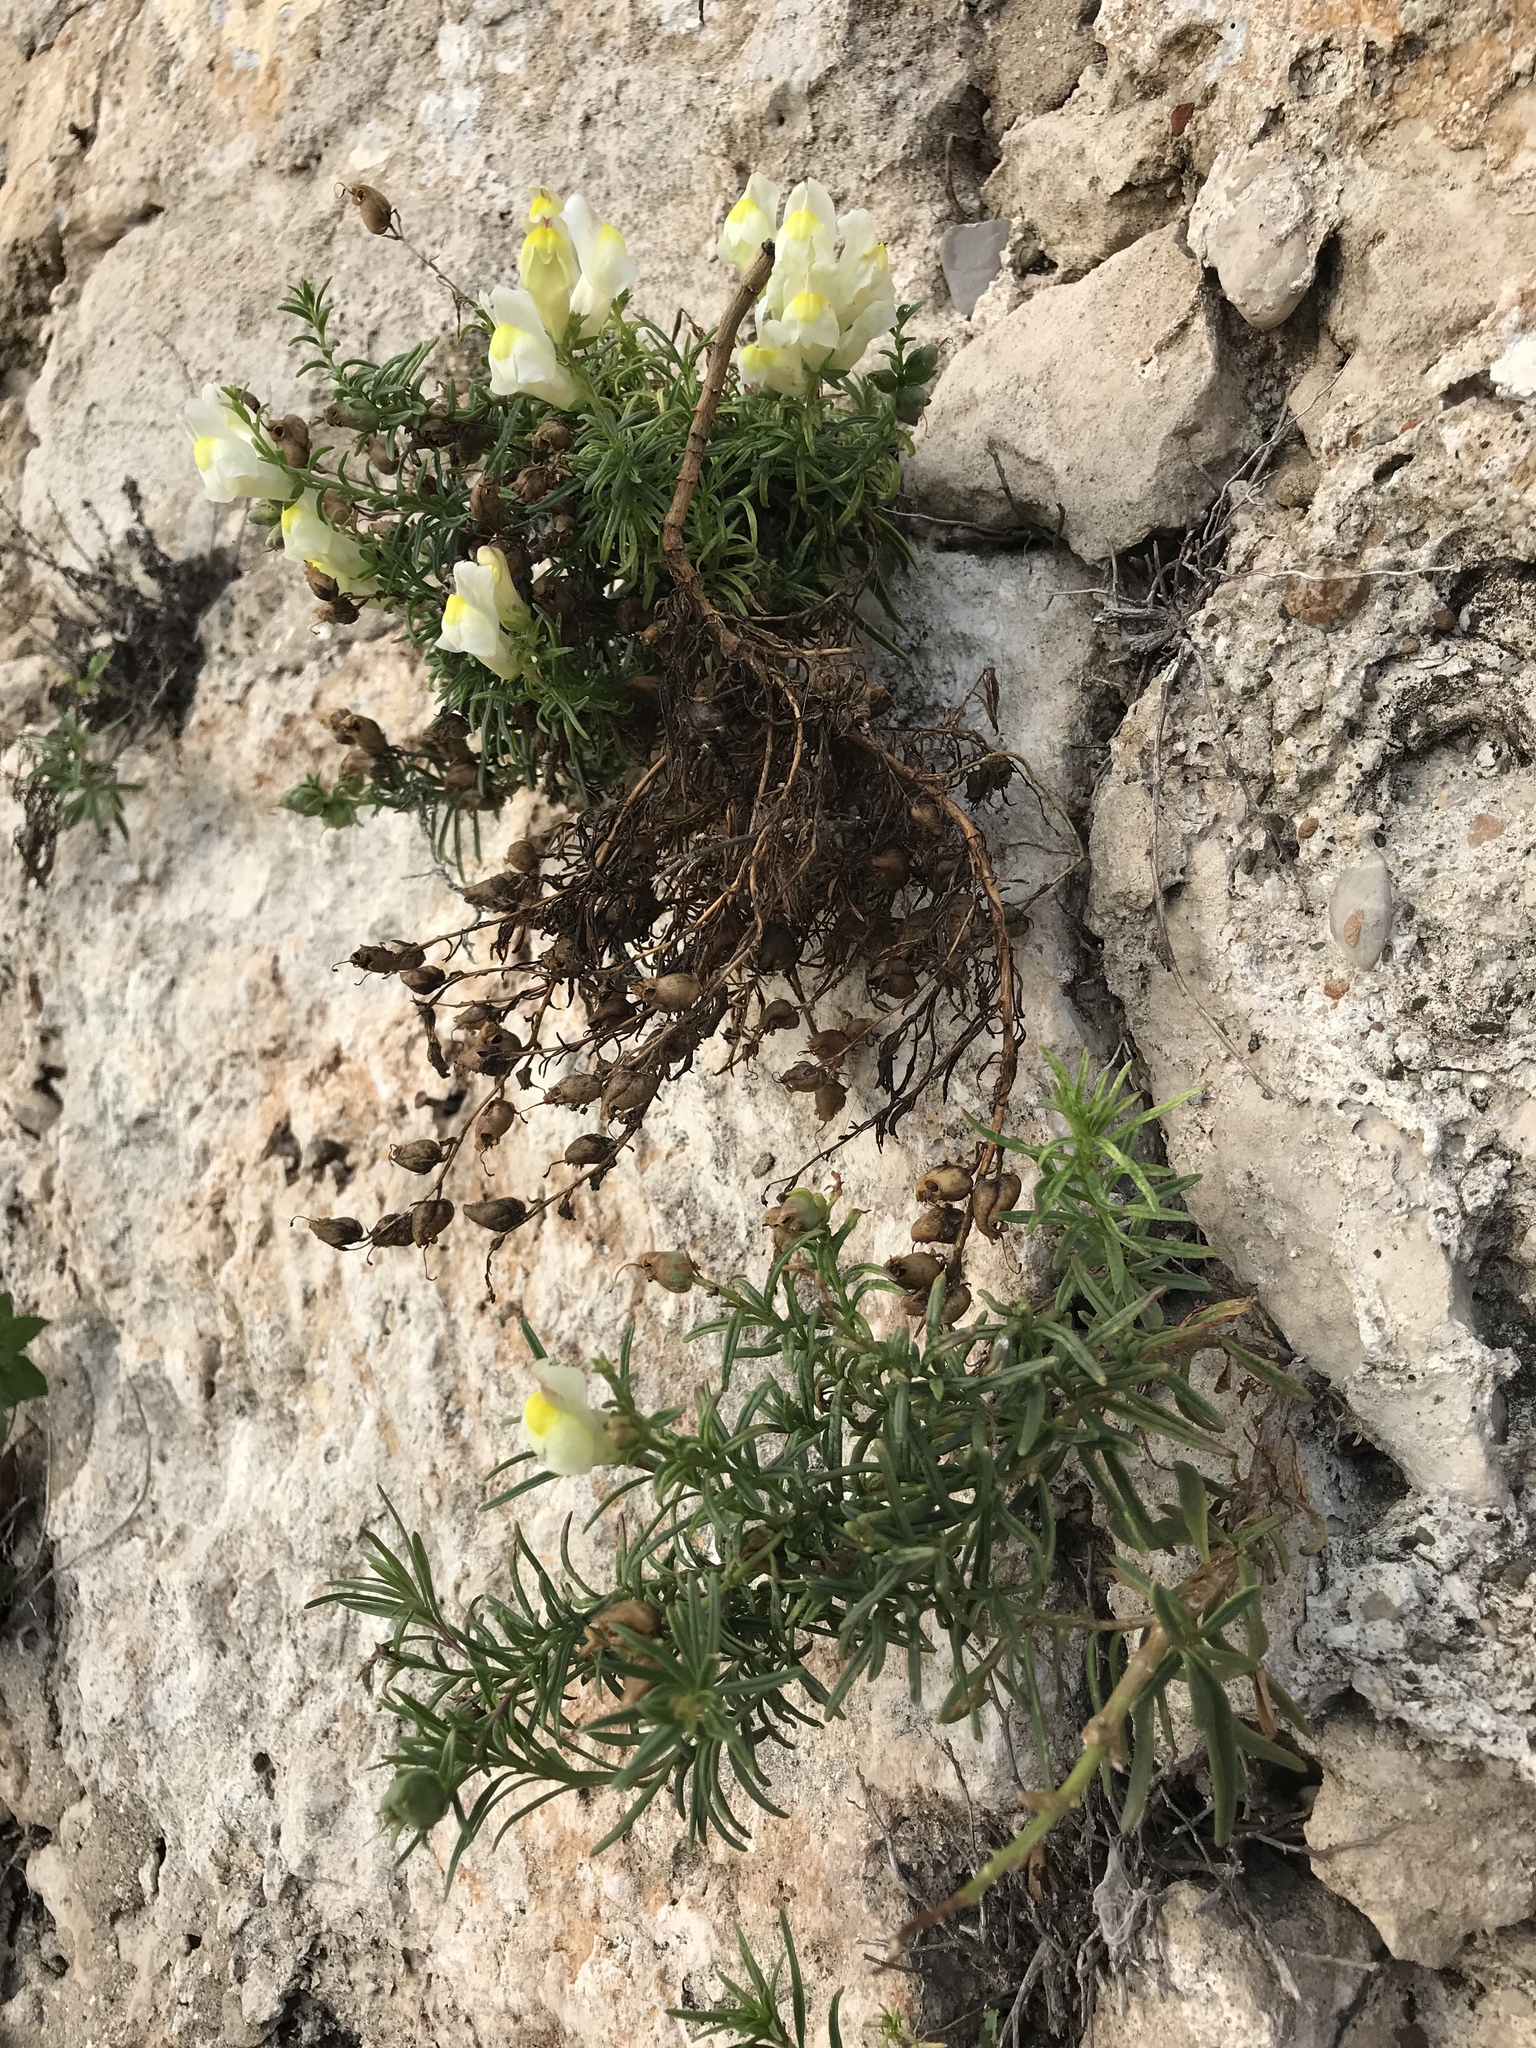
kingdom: Plantae
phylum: Tracheophyta
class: Magnoliopsida
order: Lamiales
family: Plantaginaceae
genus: Antirrhinum
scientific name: Antirrhinum siculum
